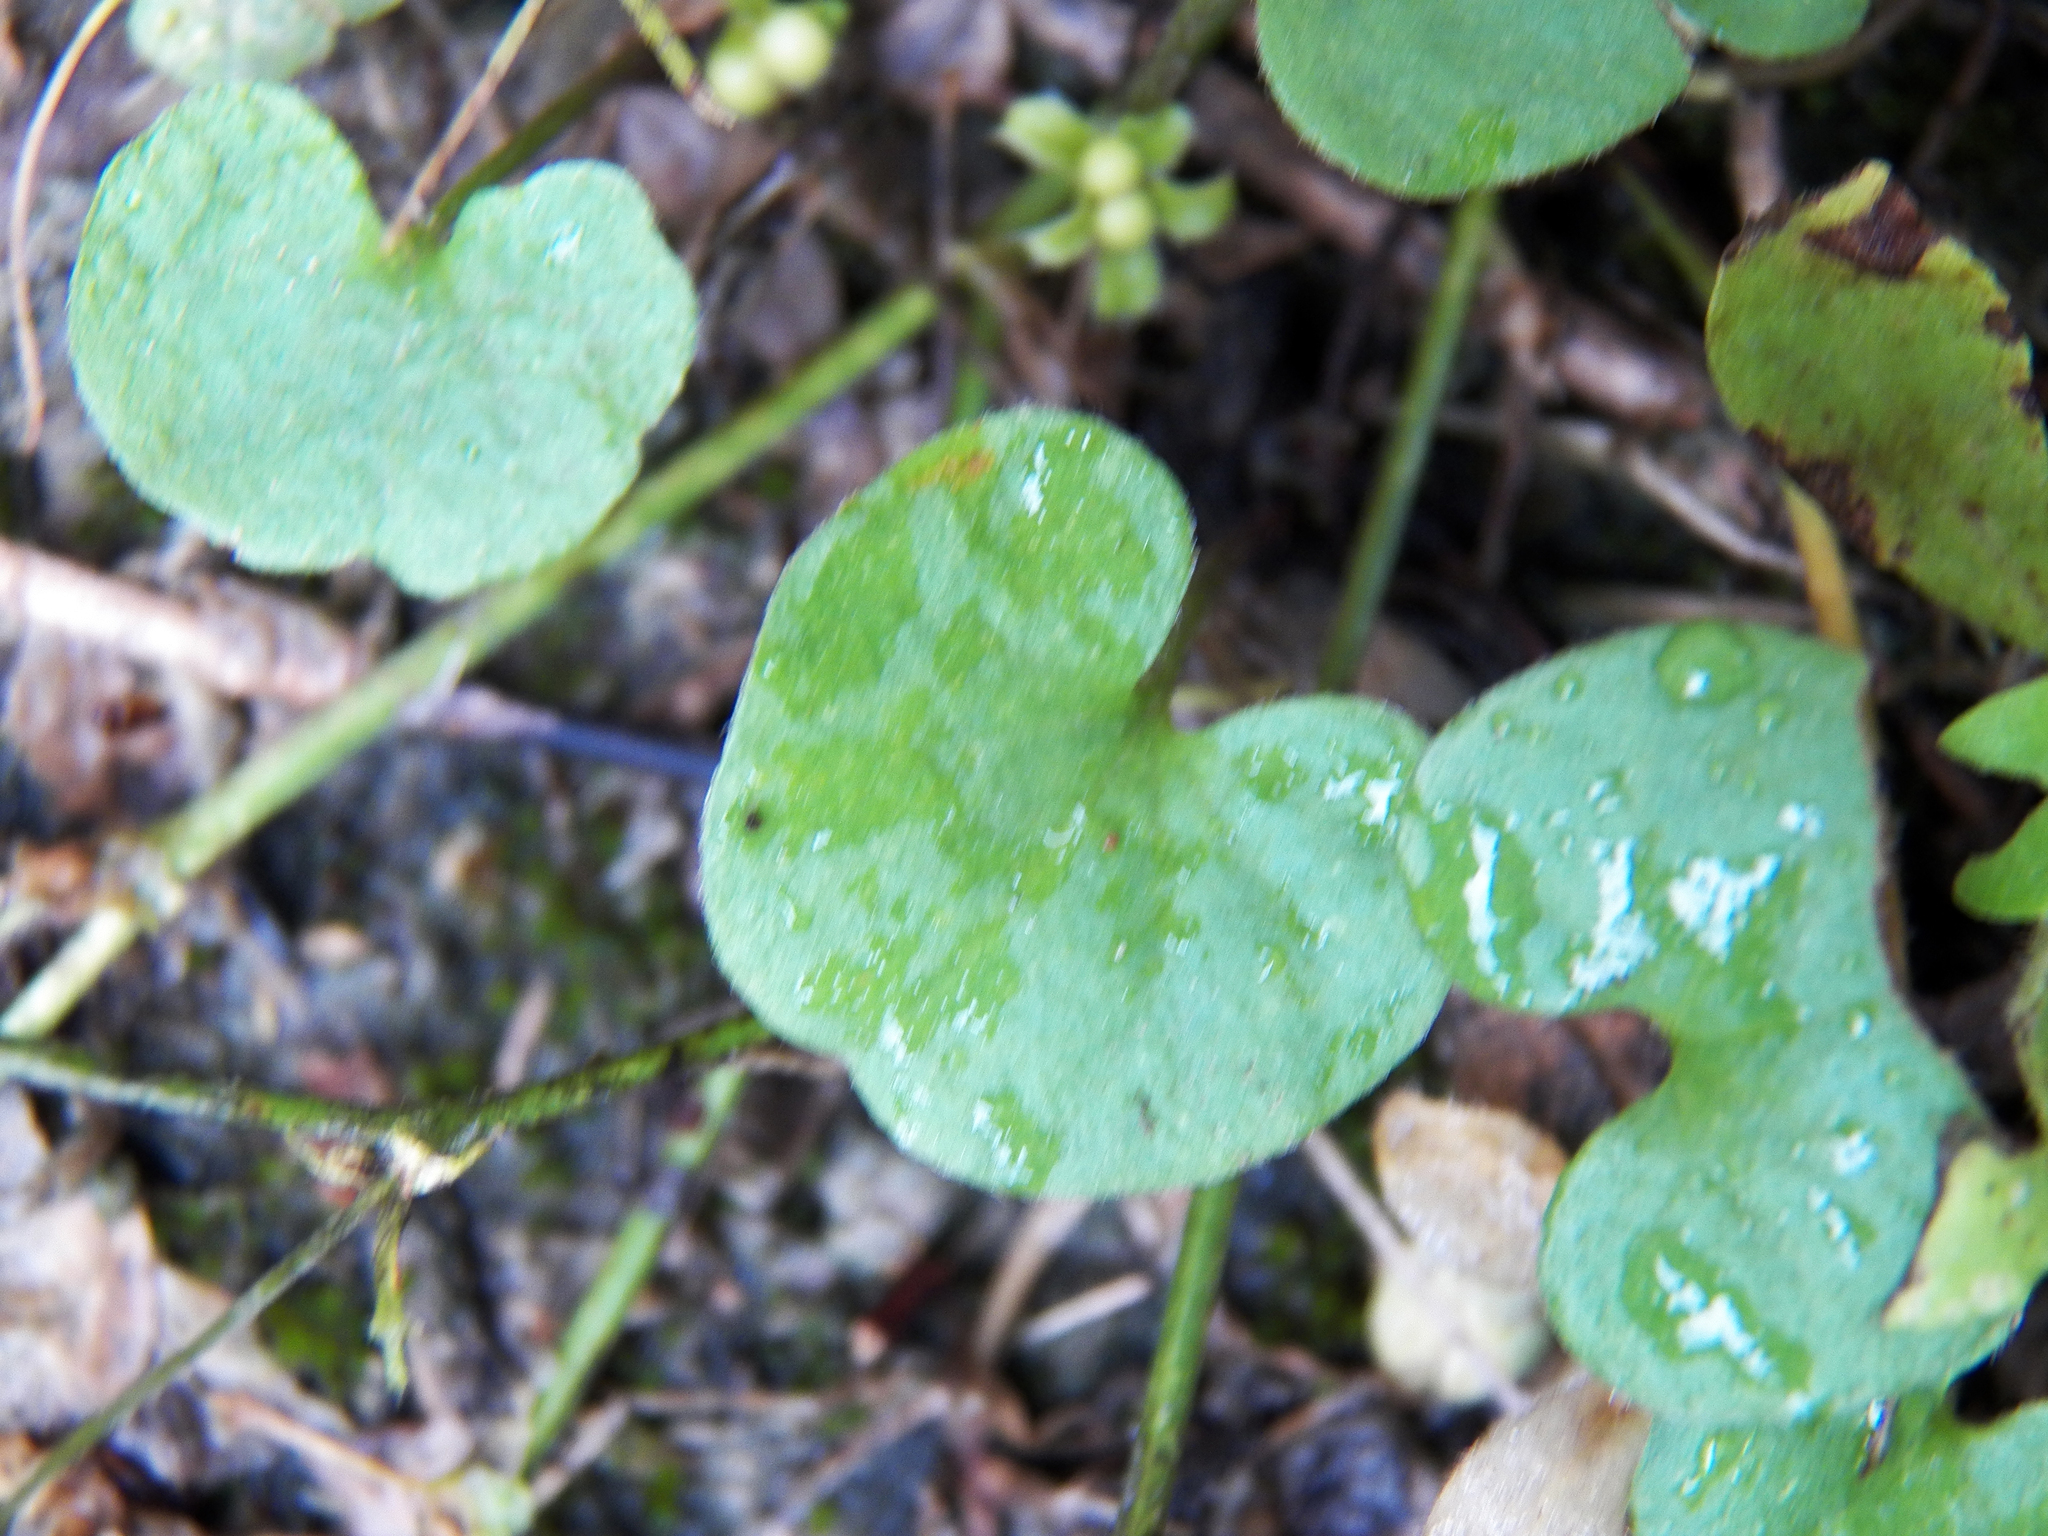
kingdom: Plantae
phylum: Tracheophyta
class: Magnoliopsida
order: Solanales
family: Convolvulaceae
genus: Dichondra
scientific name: Dichondra carolinensis
